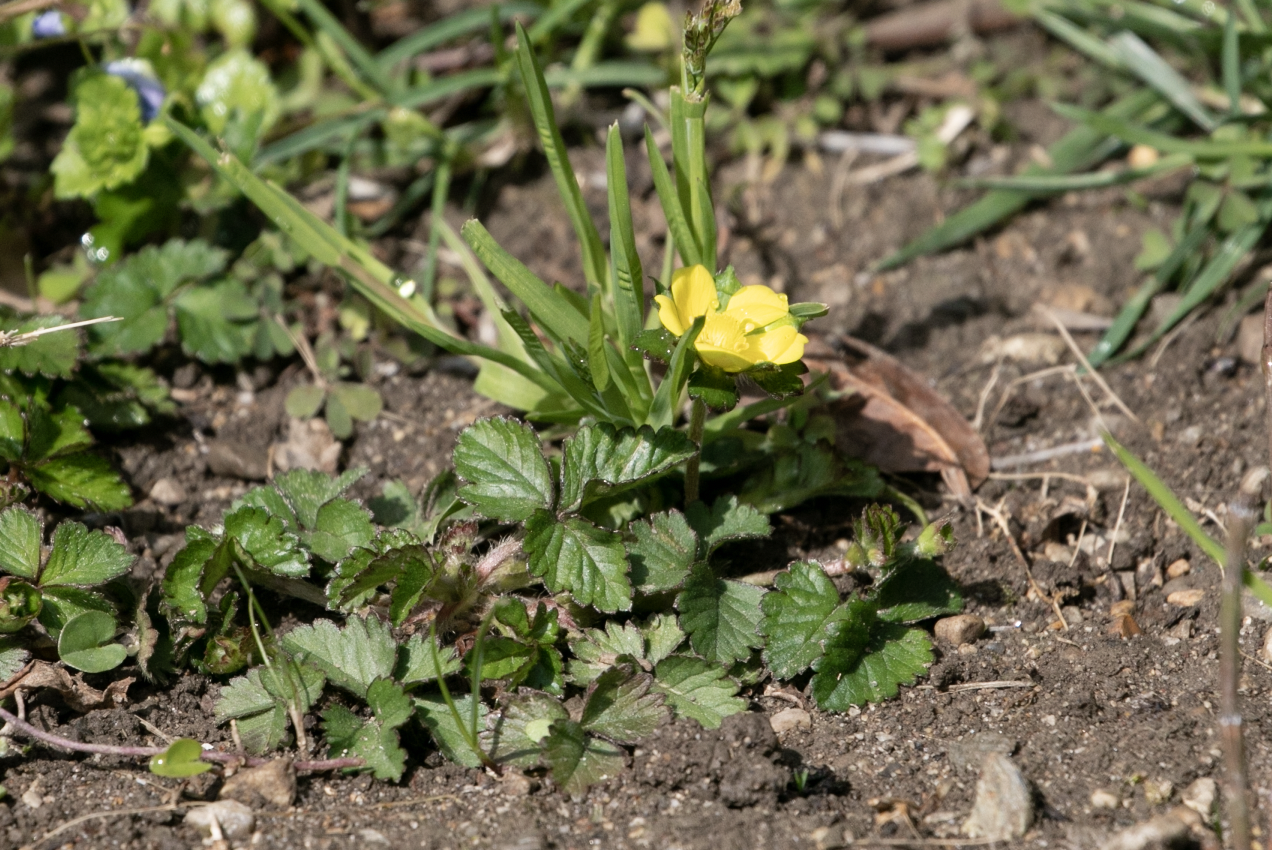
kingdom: Plantae
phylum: Tracheophyta
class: Magnoliopsida
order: Rosales
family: Rosaceae
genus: Potentilla
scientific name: Potentilla indica
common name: Yellow-flowered strawberry
